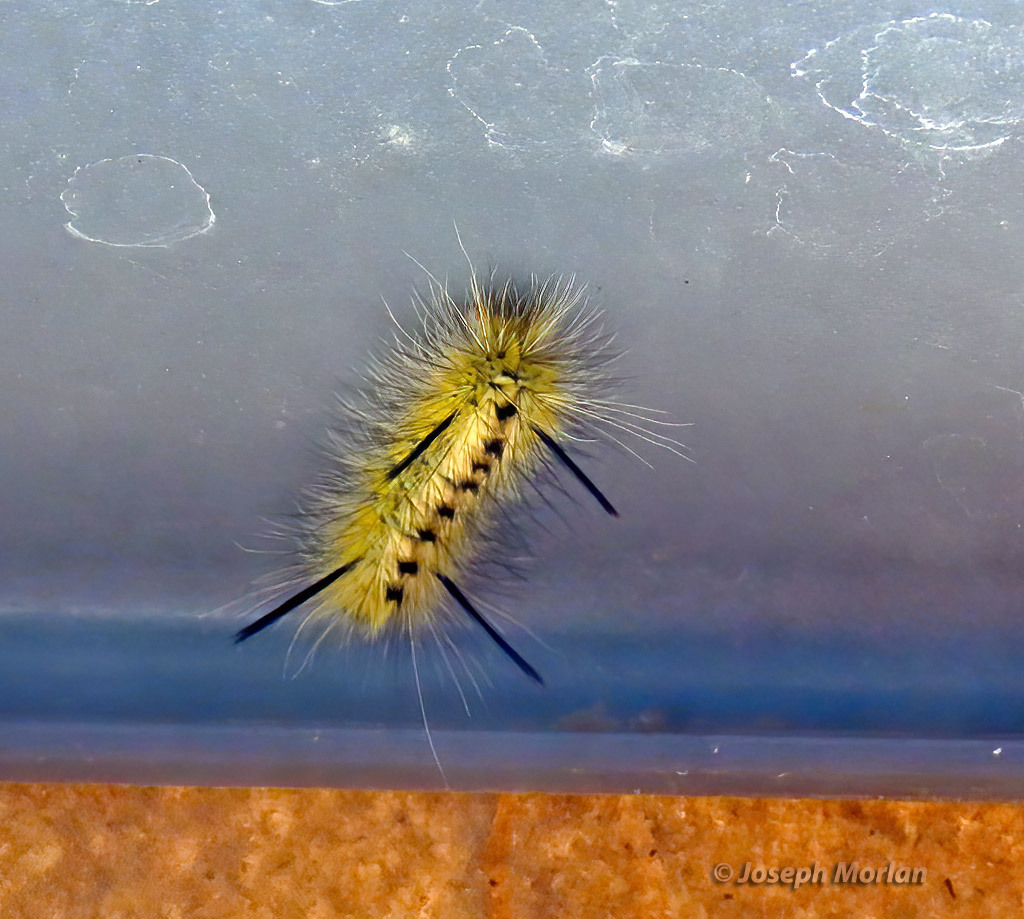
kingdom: Animalia
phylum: Arthropoda
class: Insecta
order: Lepidoptera
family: Erebidae
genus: Lophocampa
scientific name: Lophocampa mixta
